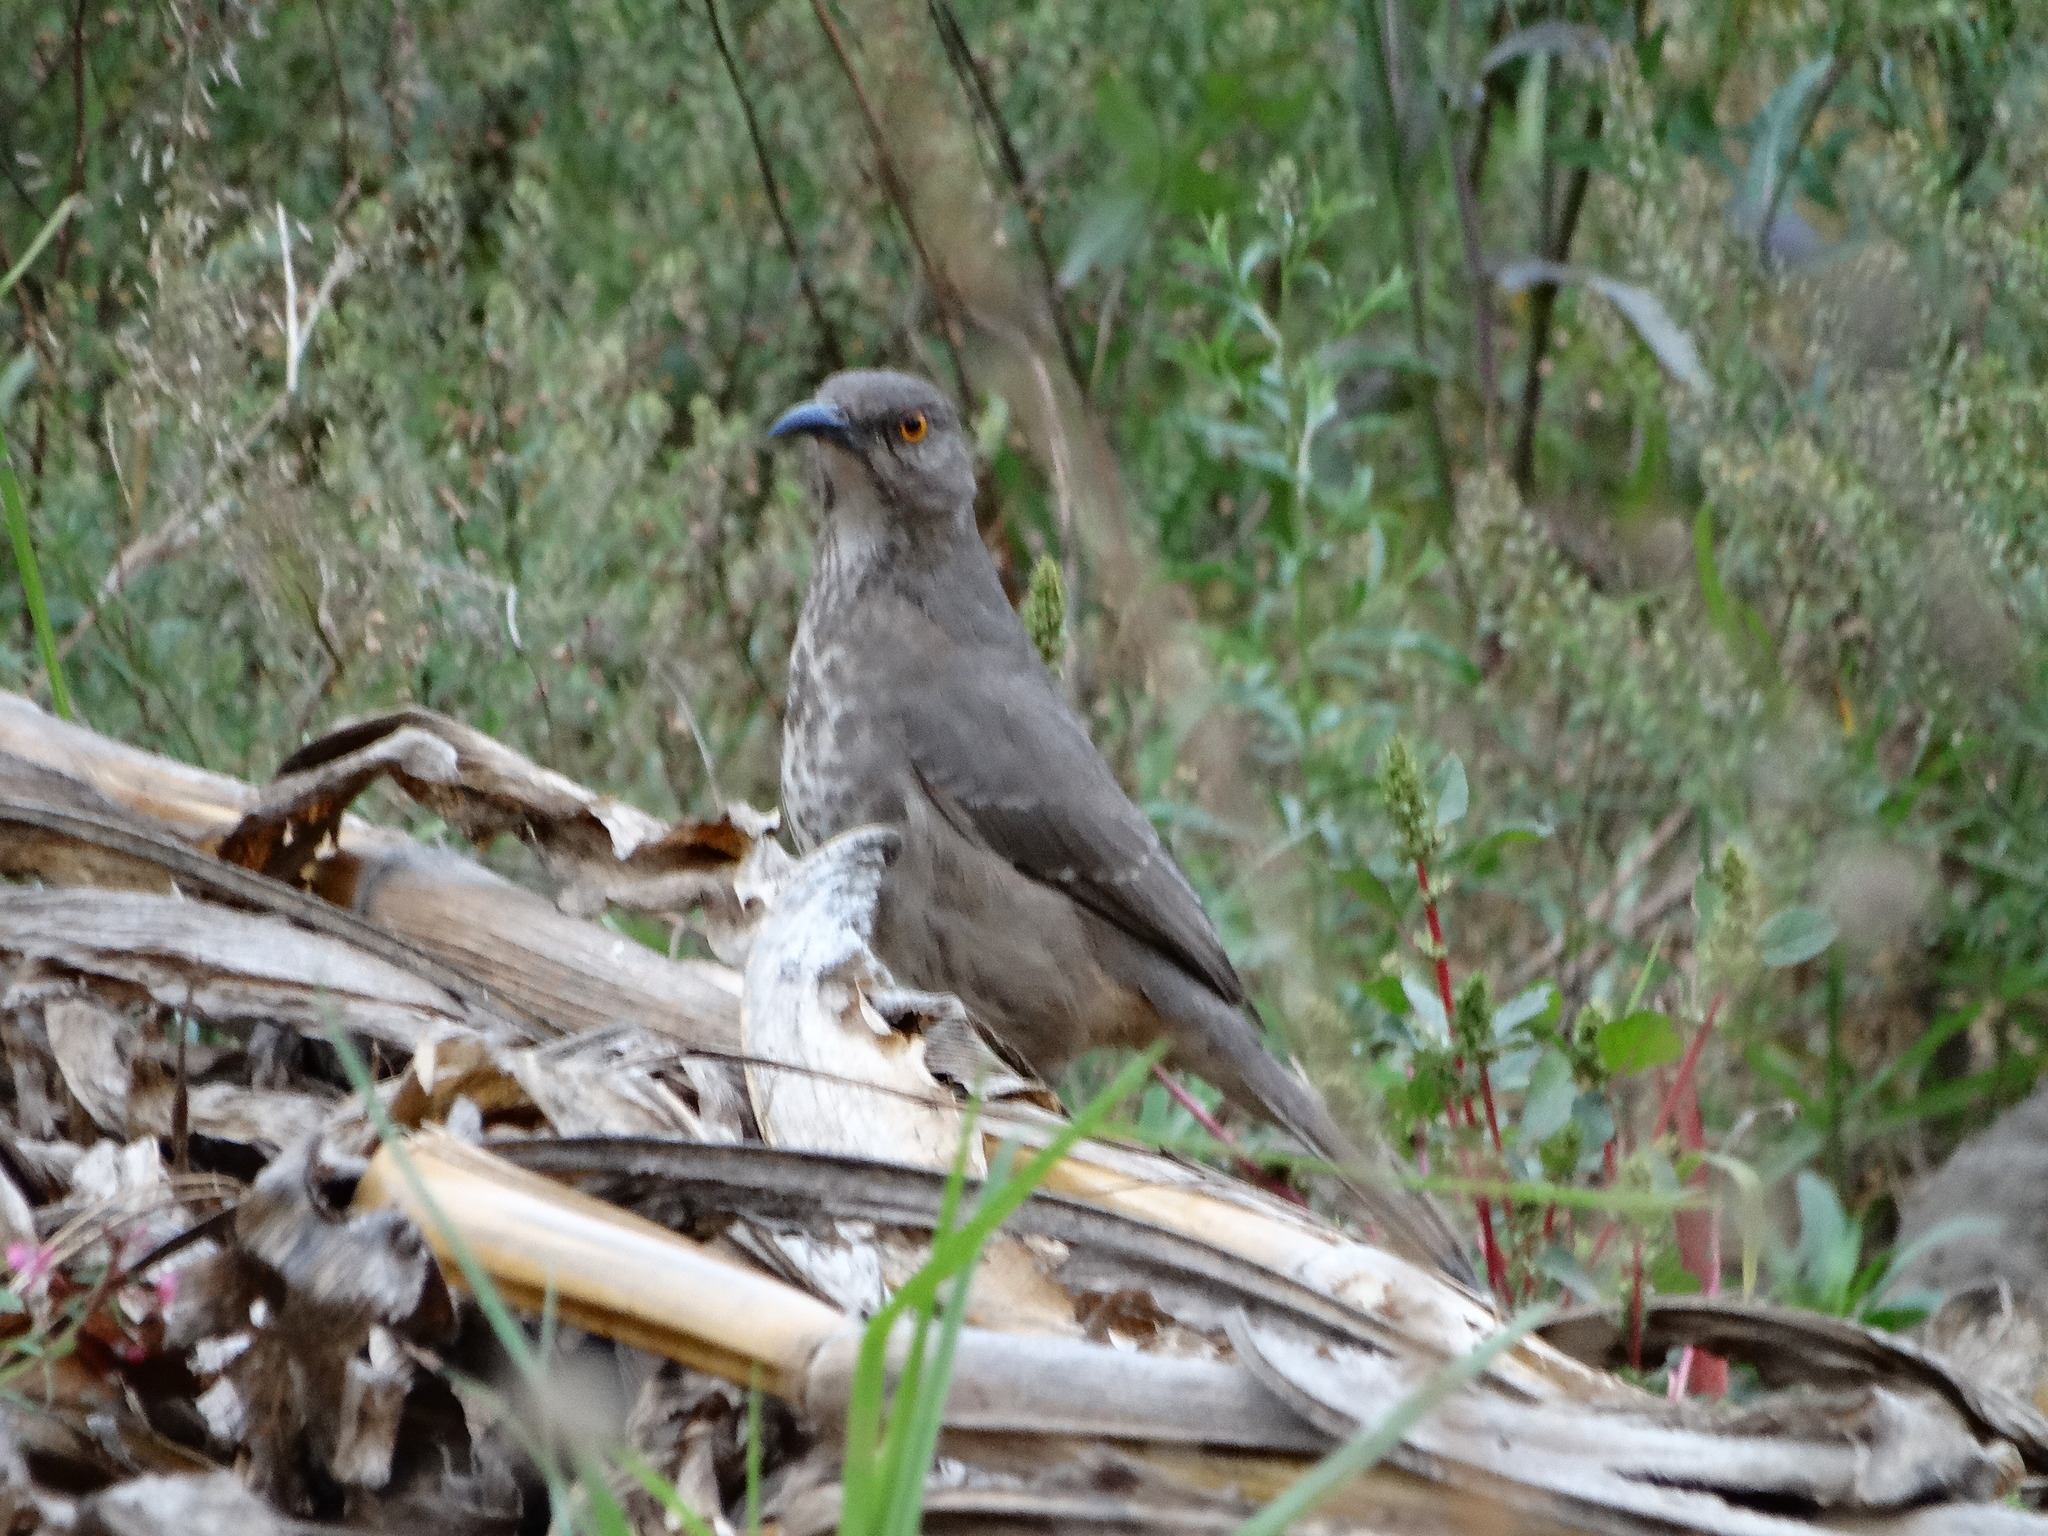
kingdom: Animalia
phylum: Chordata
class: Aves
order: Passeriformes
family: Mimidae
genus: Toxostoma
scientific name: Toxostoma curvirostre
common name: Curve-billed thrasher
